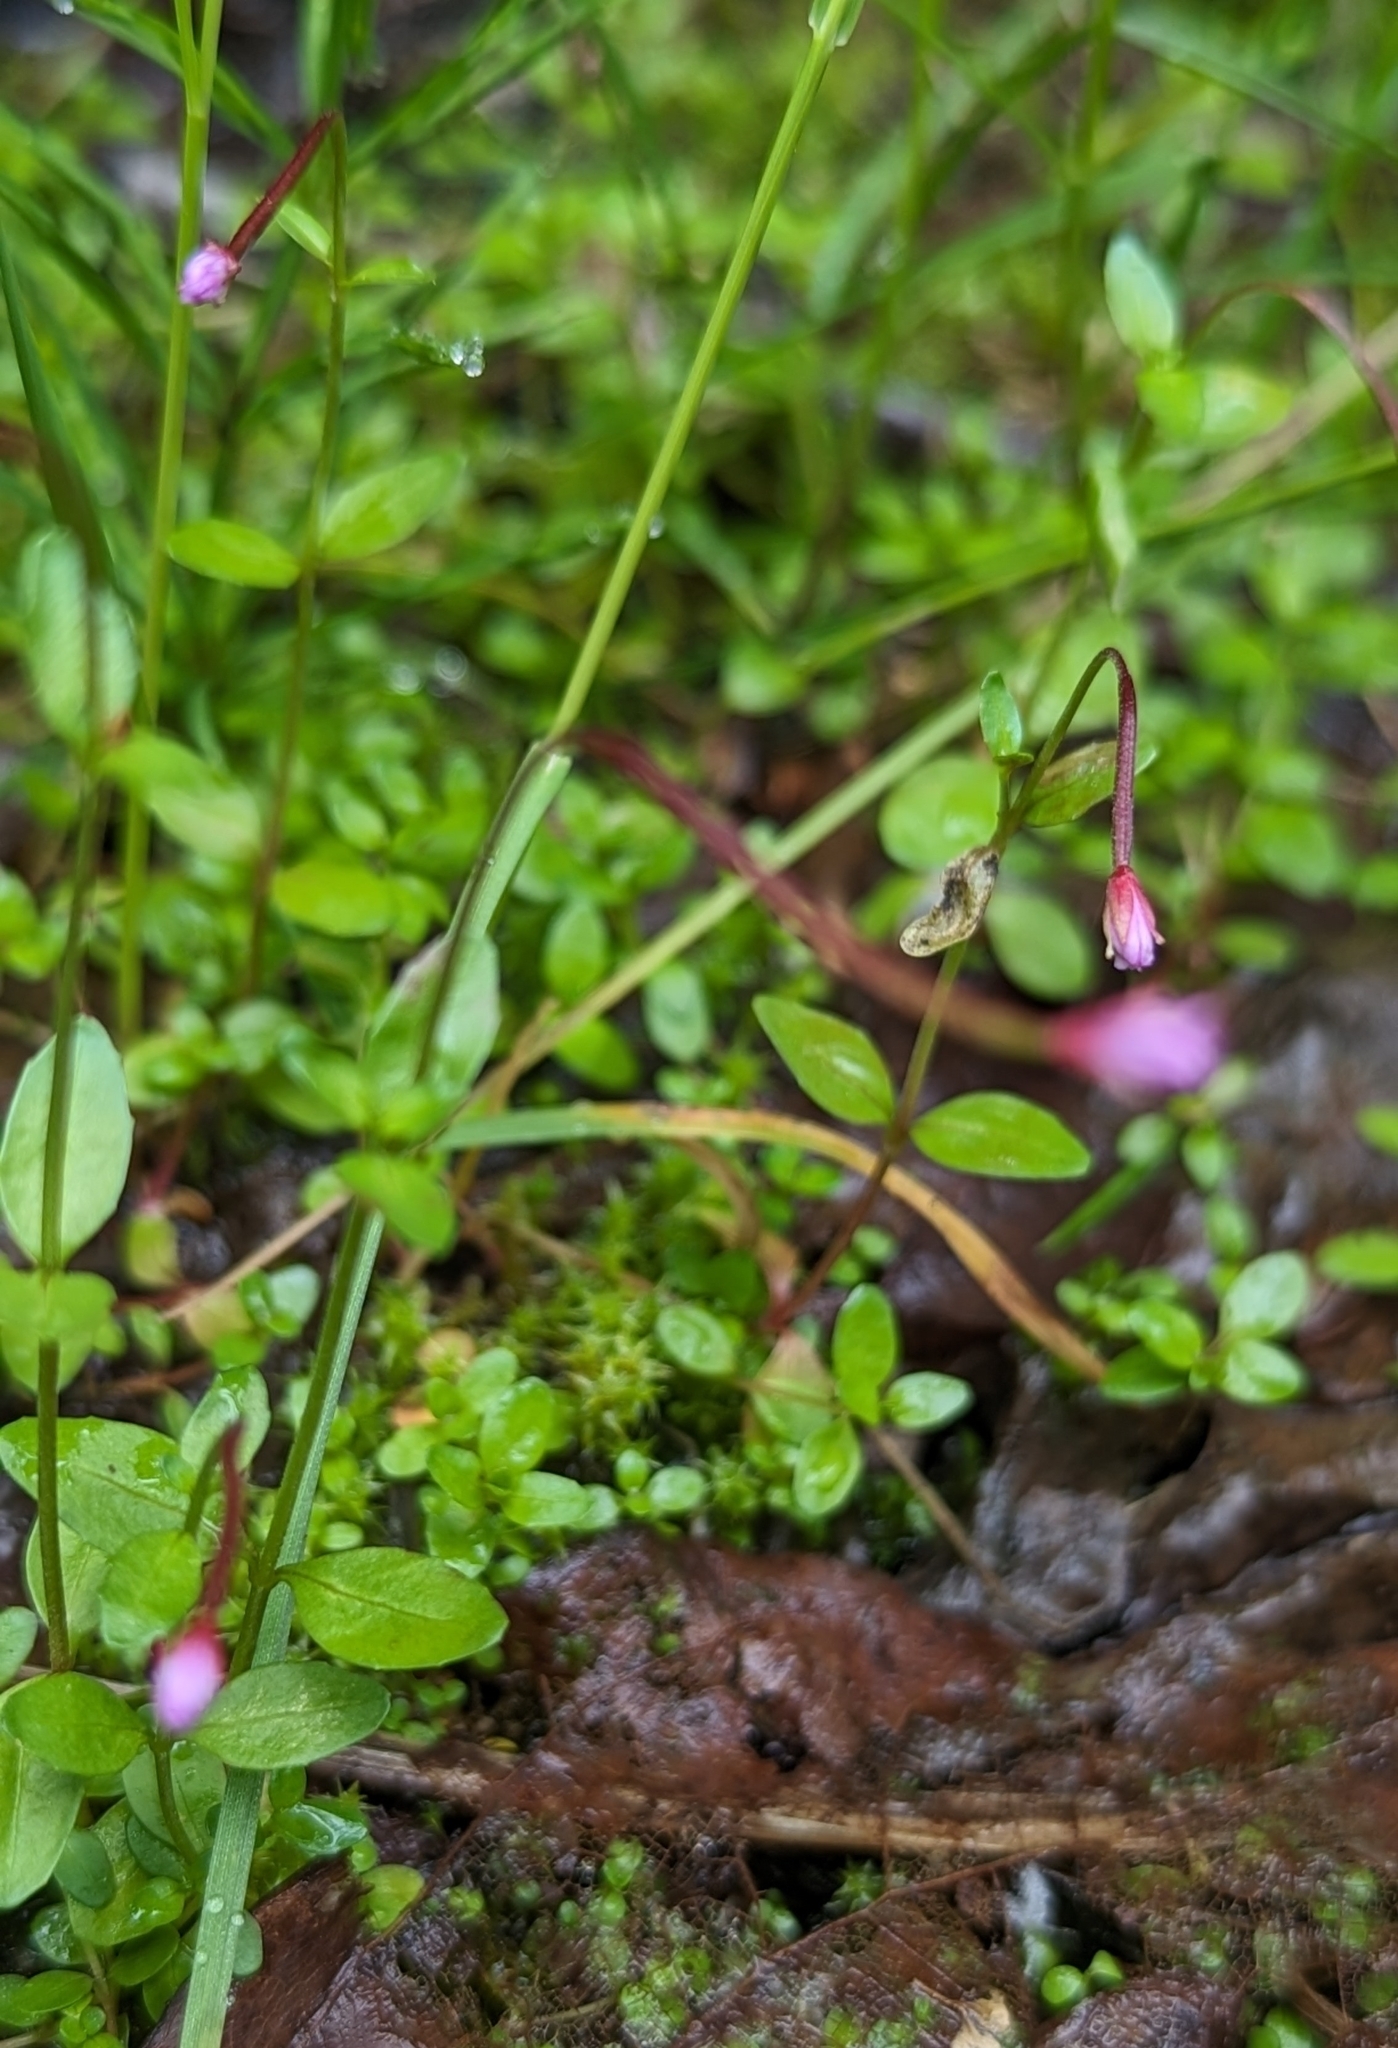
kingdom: Plantae
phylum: Tracheophyta
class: Magnoliopsida
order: Myrtales
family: Onagraceae
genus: Epilobium
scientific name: Epilobium anagallidifolium
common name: Alpine willowherb
